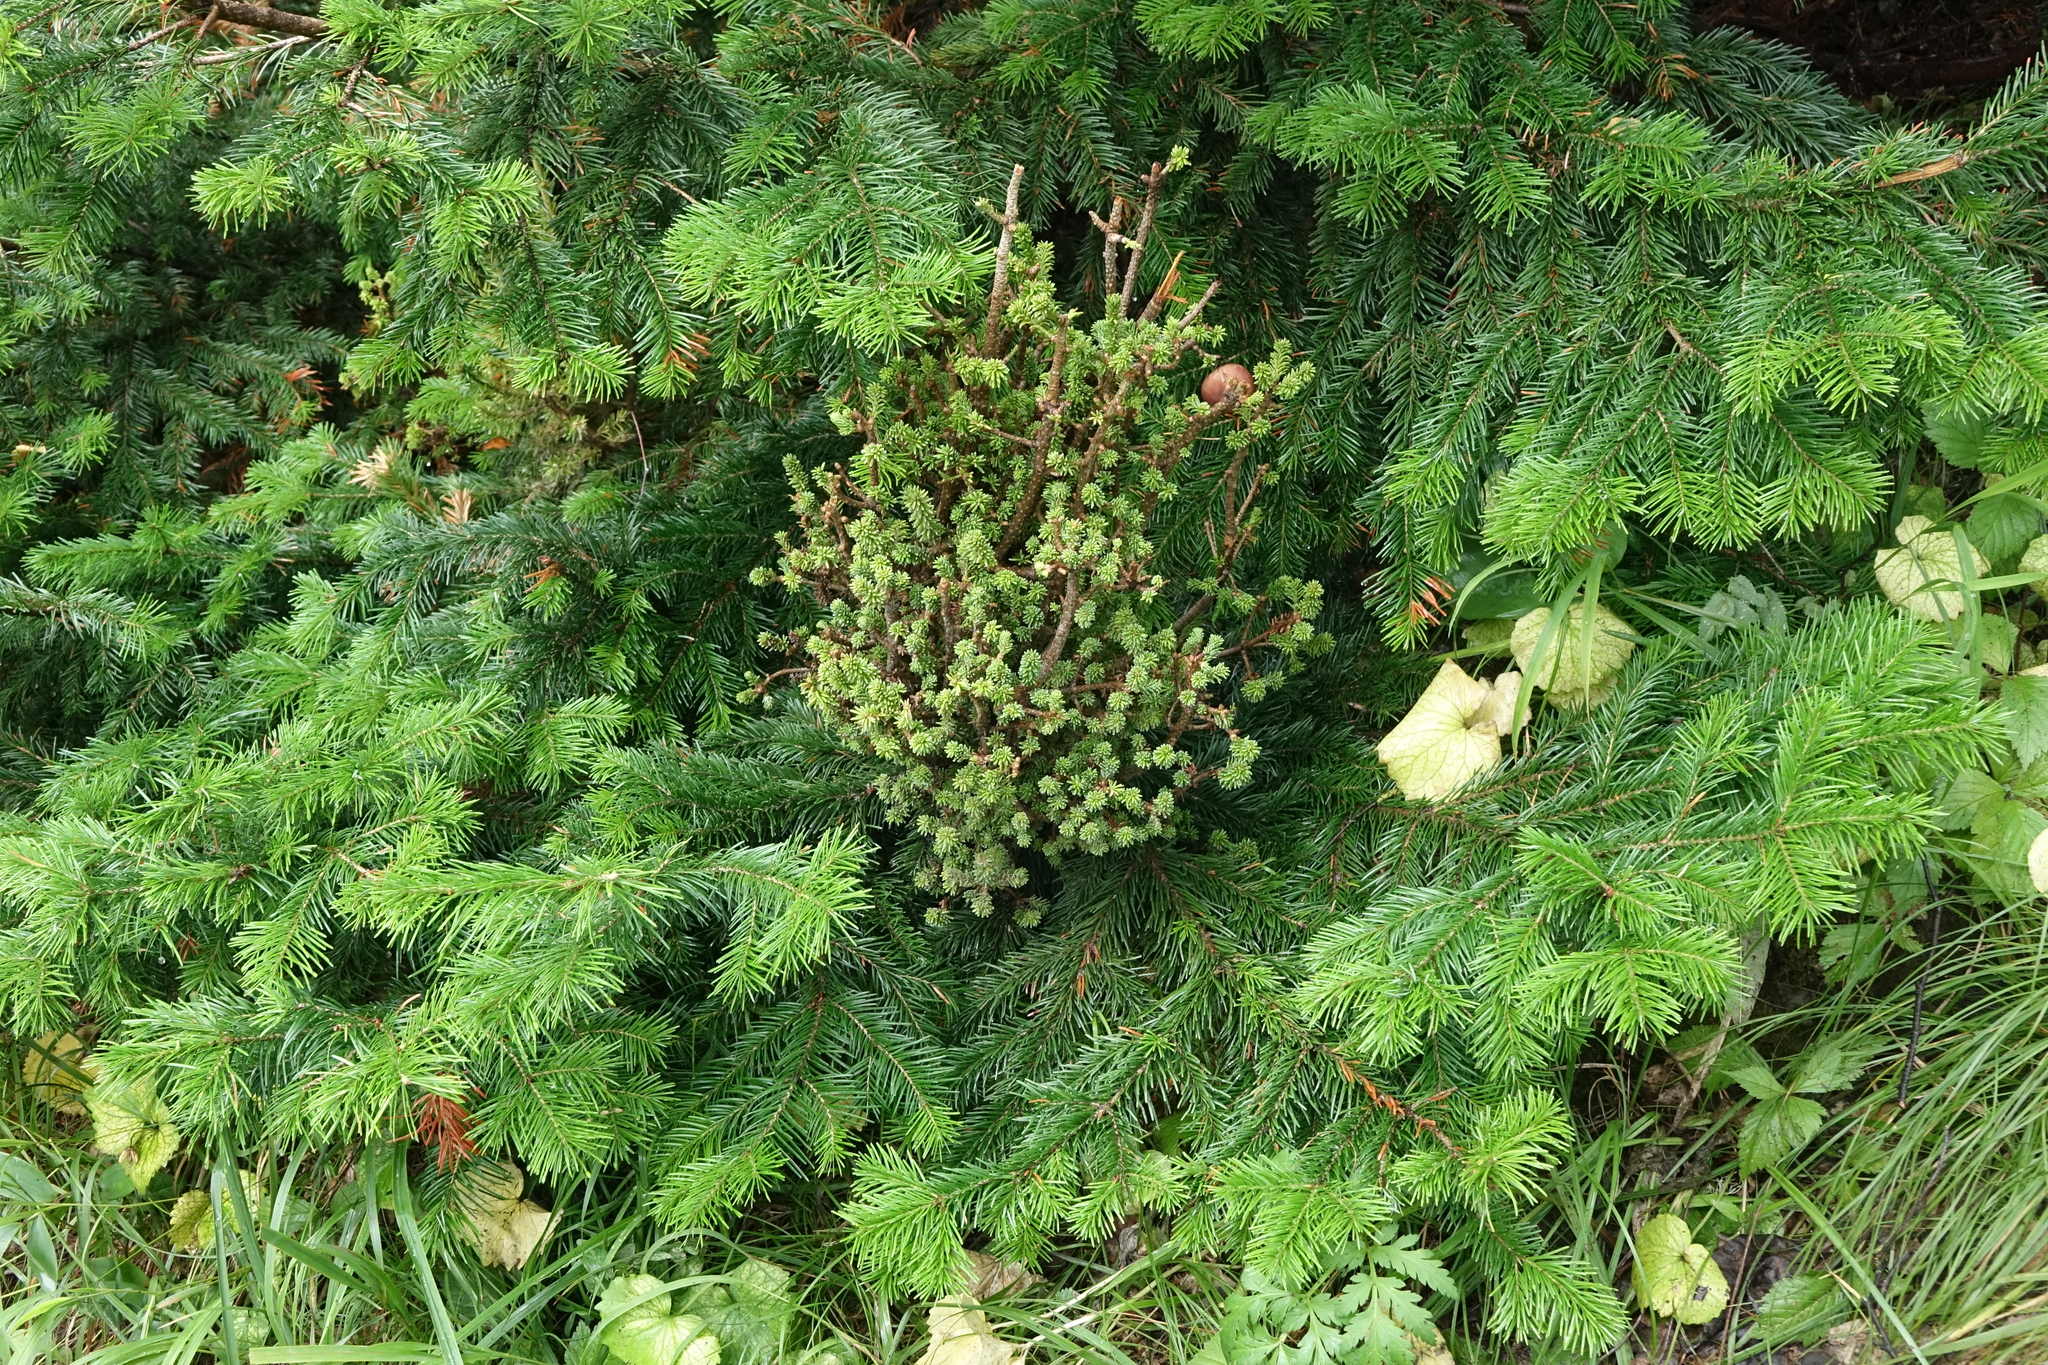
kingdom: Plantae
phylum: Tracheophyta
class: Pinopsida
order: Pinales
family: Pinaceae
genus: Abies
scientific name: Abies sibirica
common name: Siberian fir
